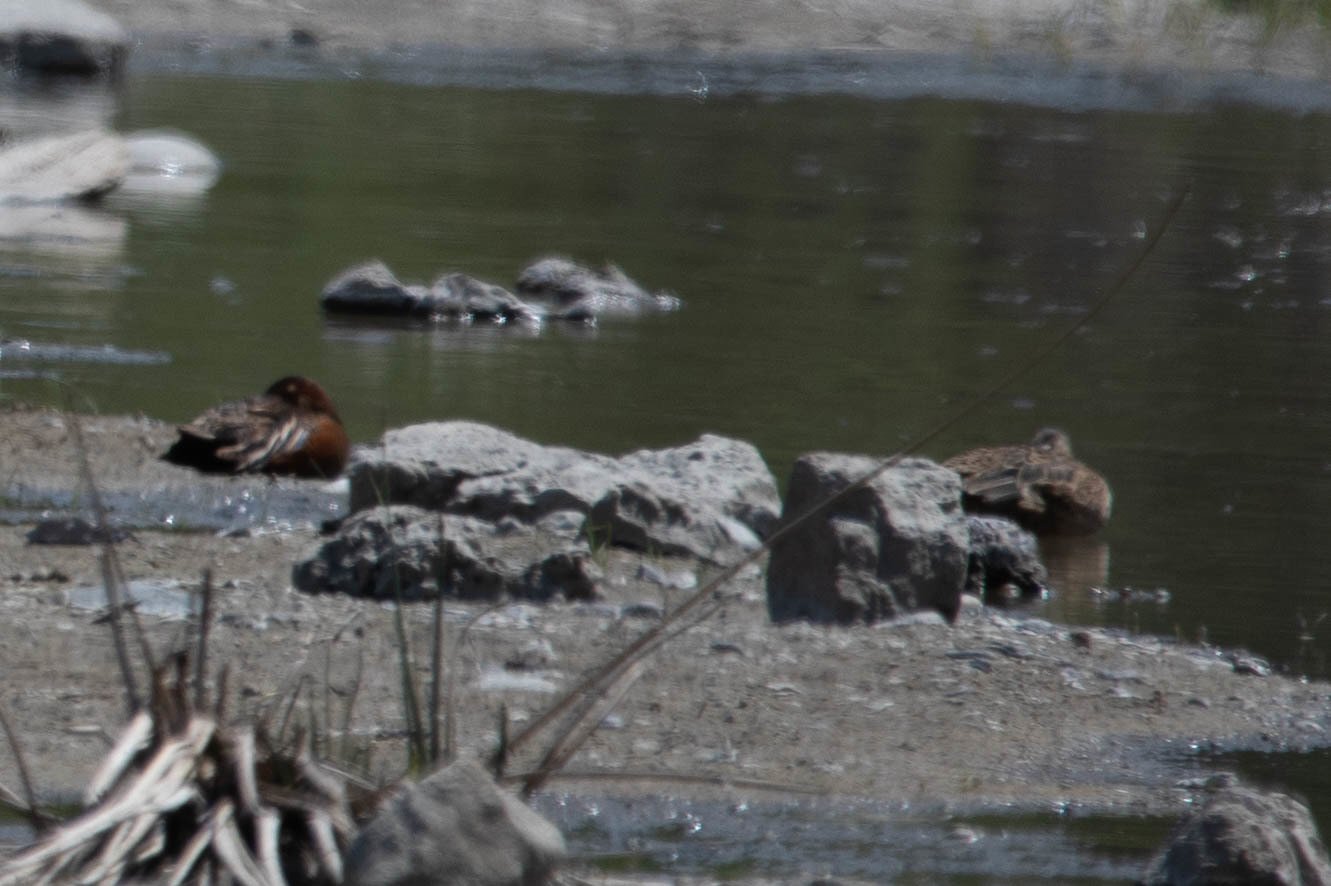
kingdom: Animalia
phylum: Chordata
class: Aves
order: Anseriformes
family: Anatidae
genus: Spatula
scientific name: Spatula cyanoptera
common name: Cinnamon teal
